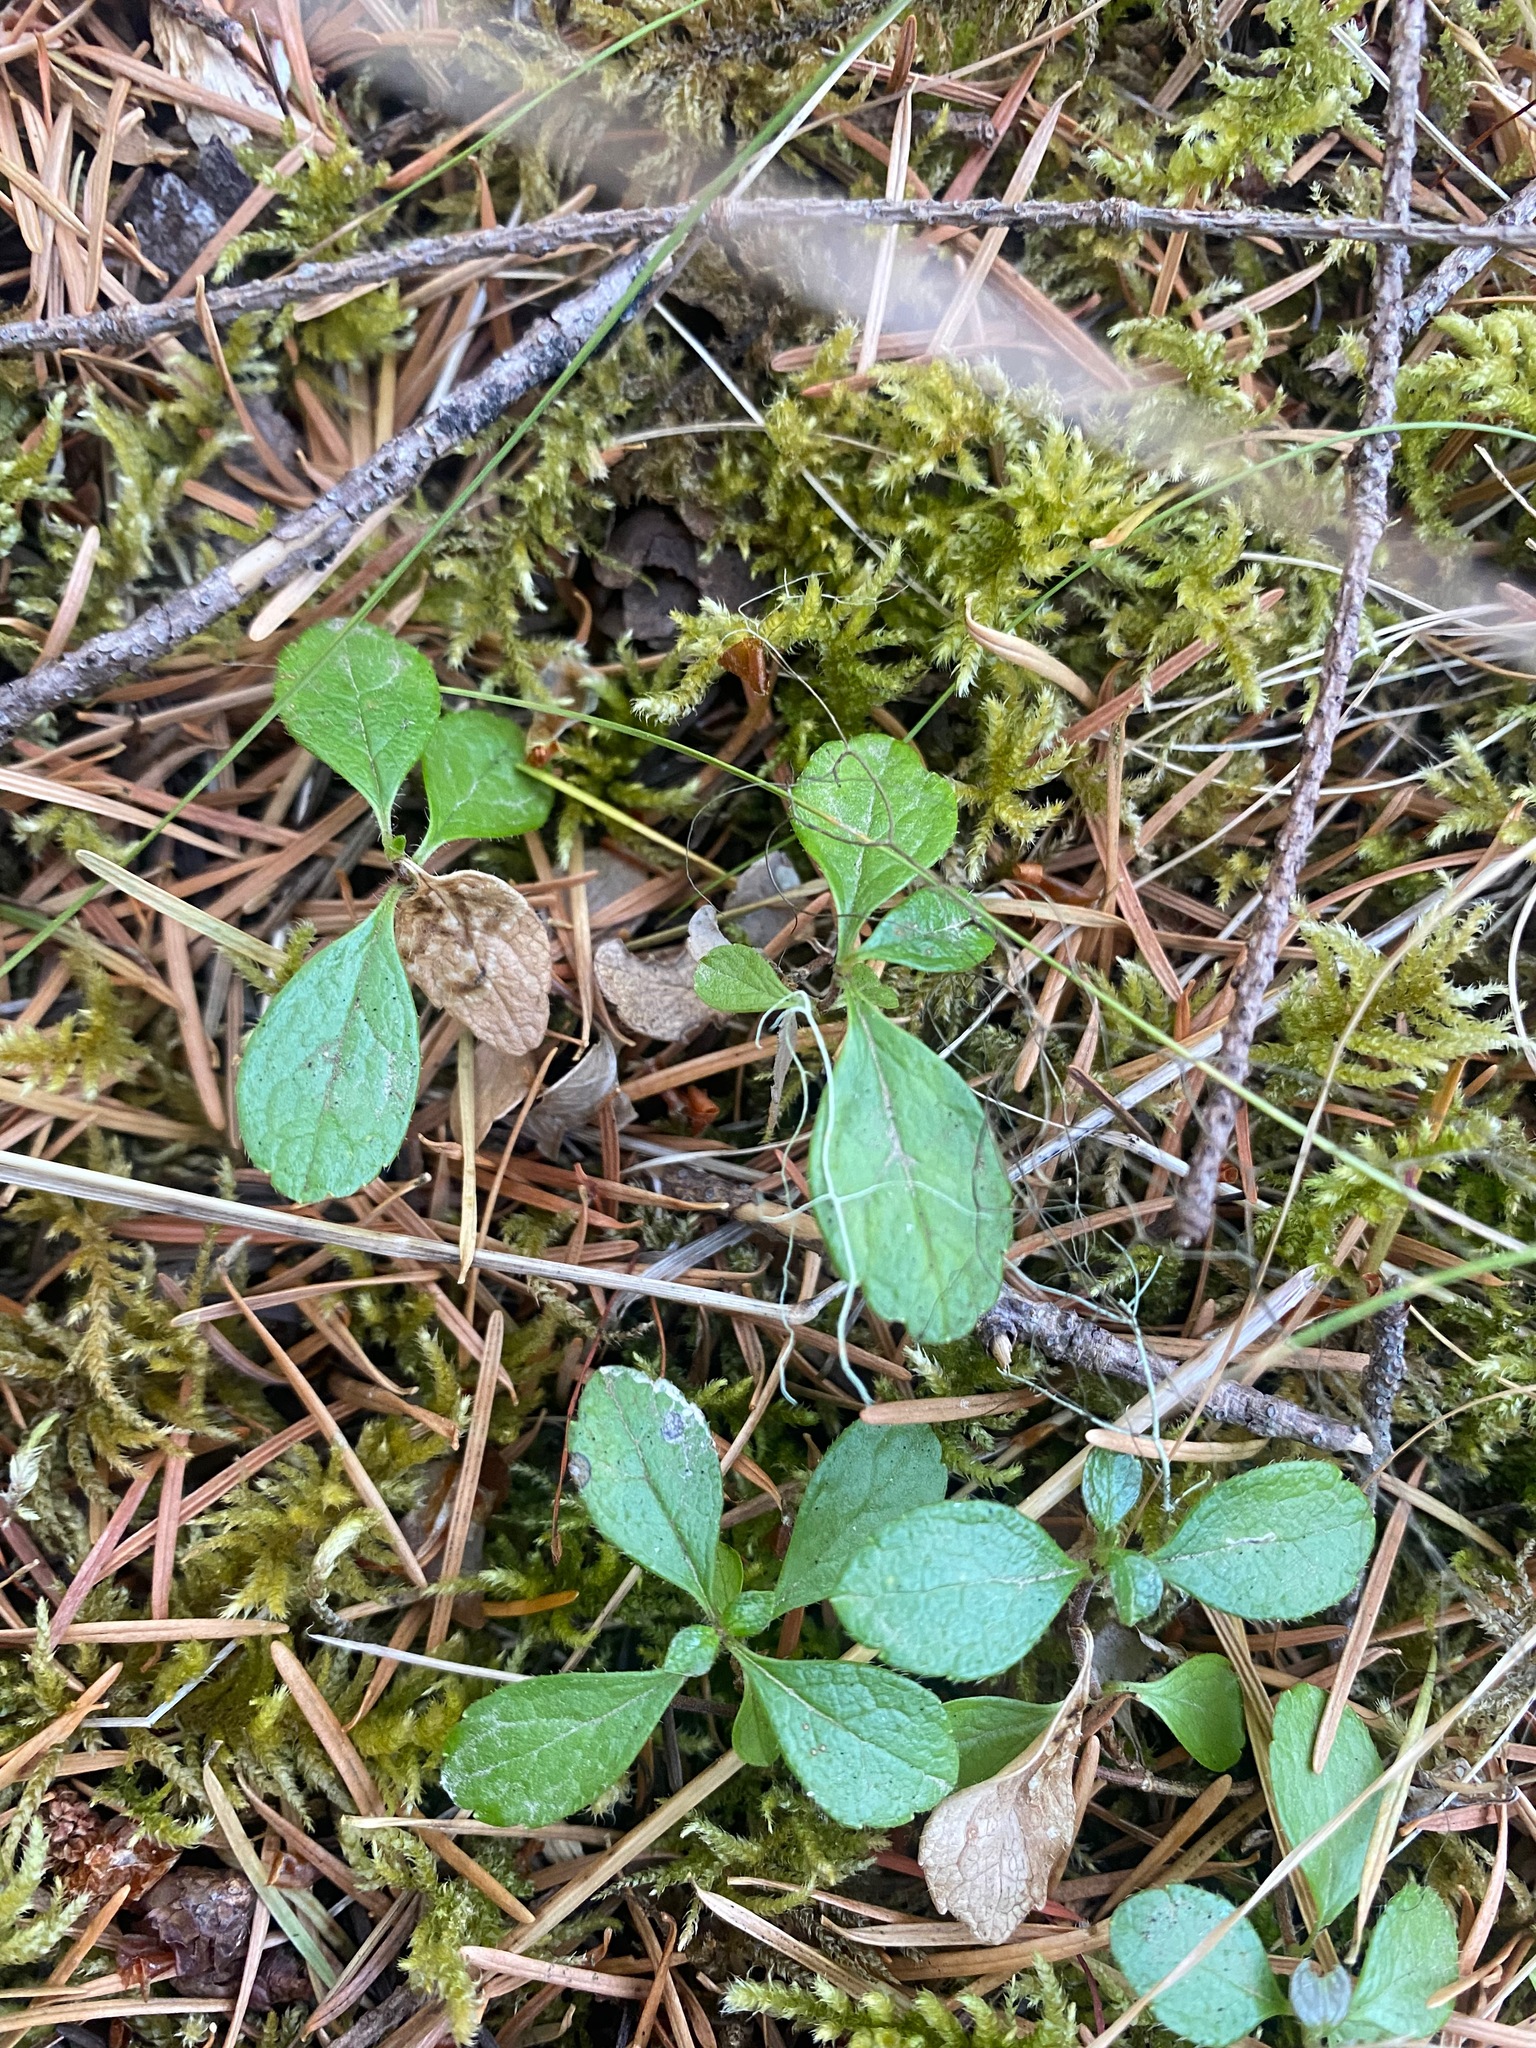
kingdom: Plantae
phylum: Tracheophyta
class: Magnoliopsida
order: Dipsacales
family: Caprifoliaceae
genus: Linnaea
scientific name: Linnaea borealis
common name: Twinflower
